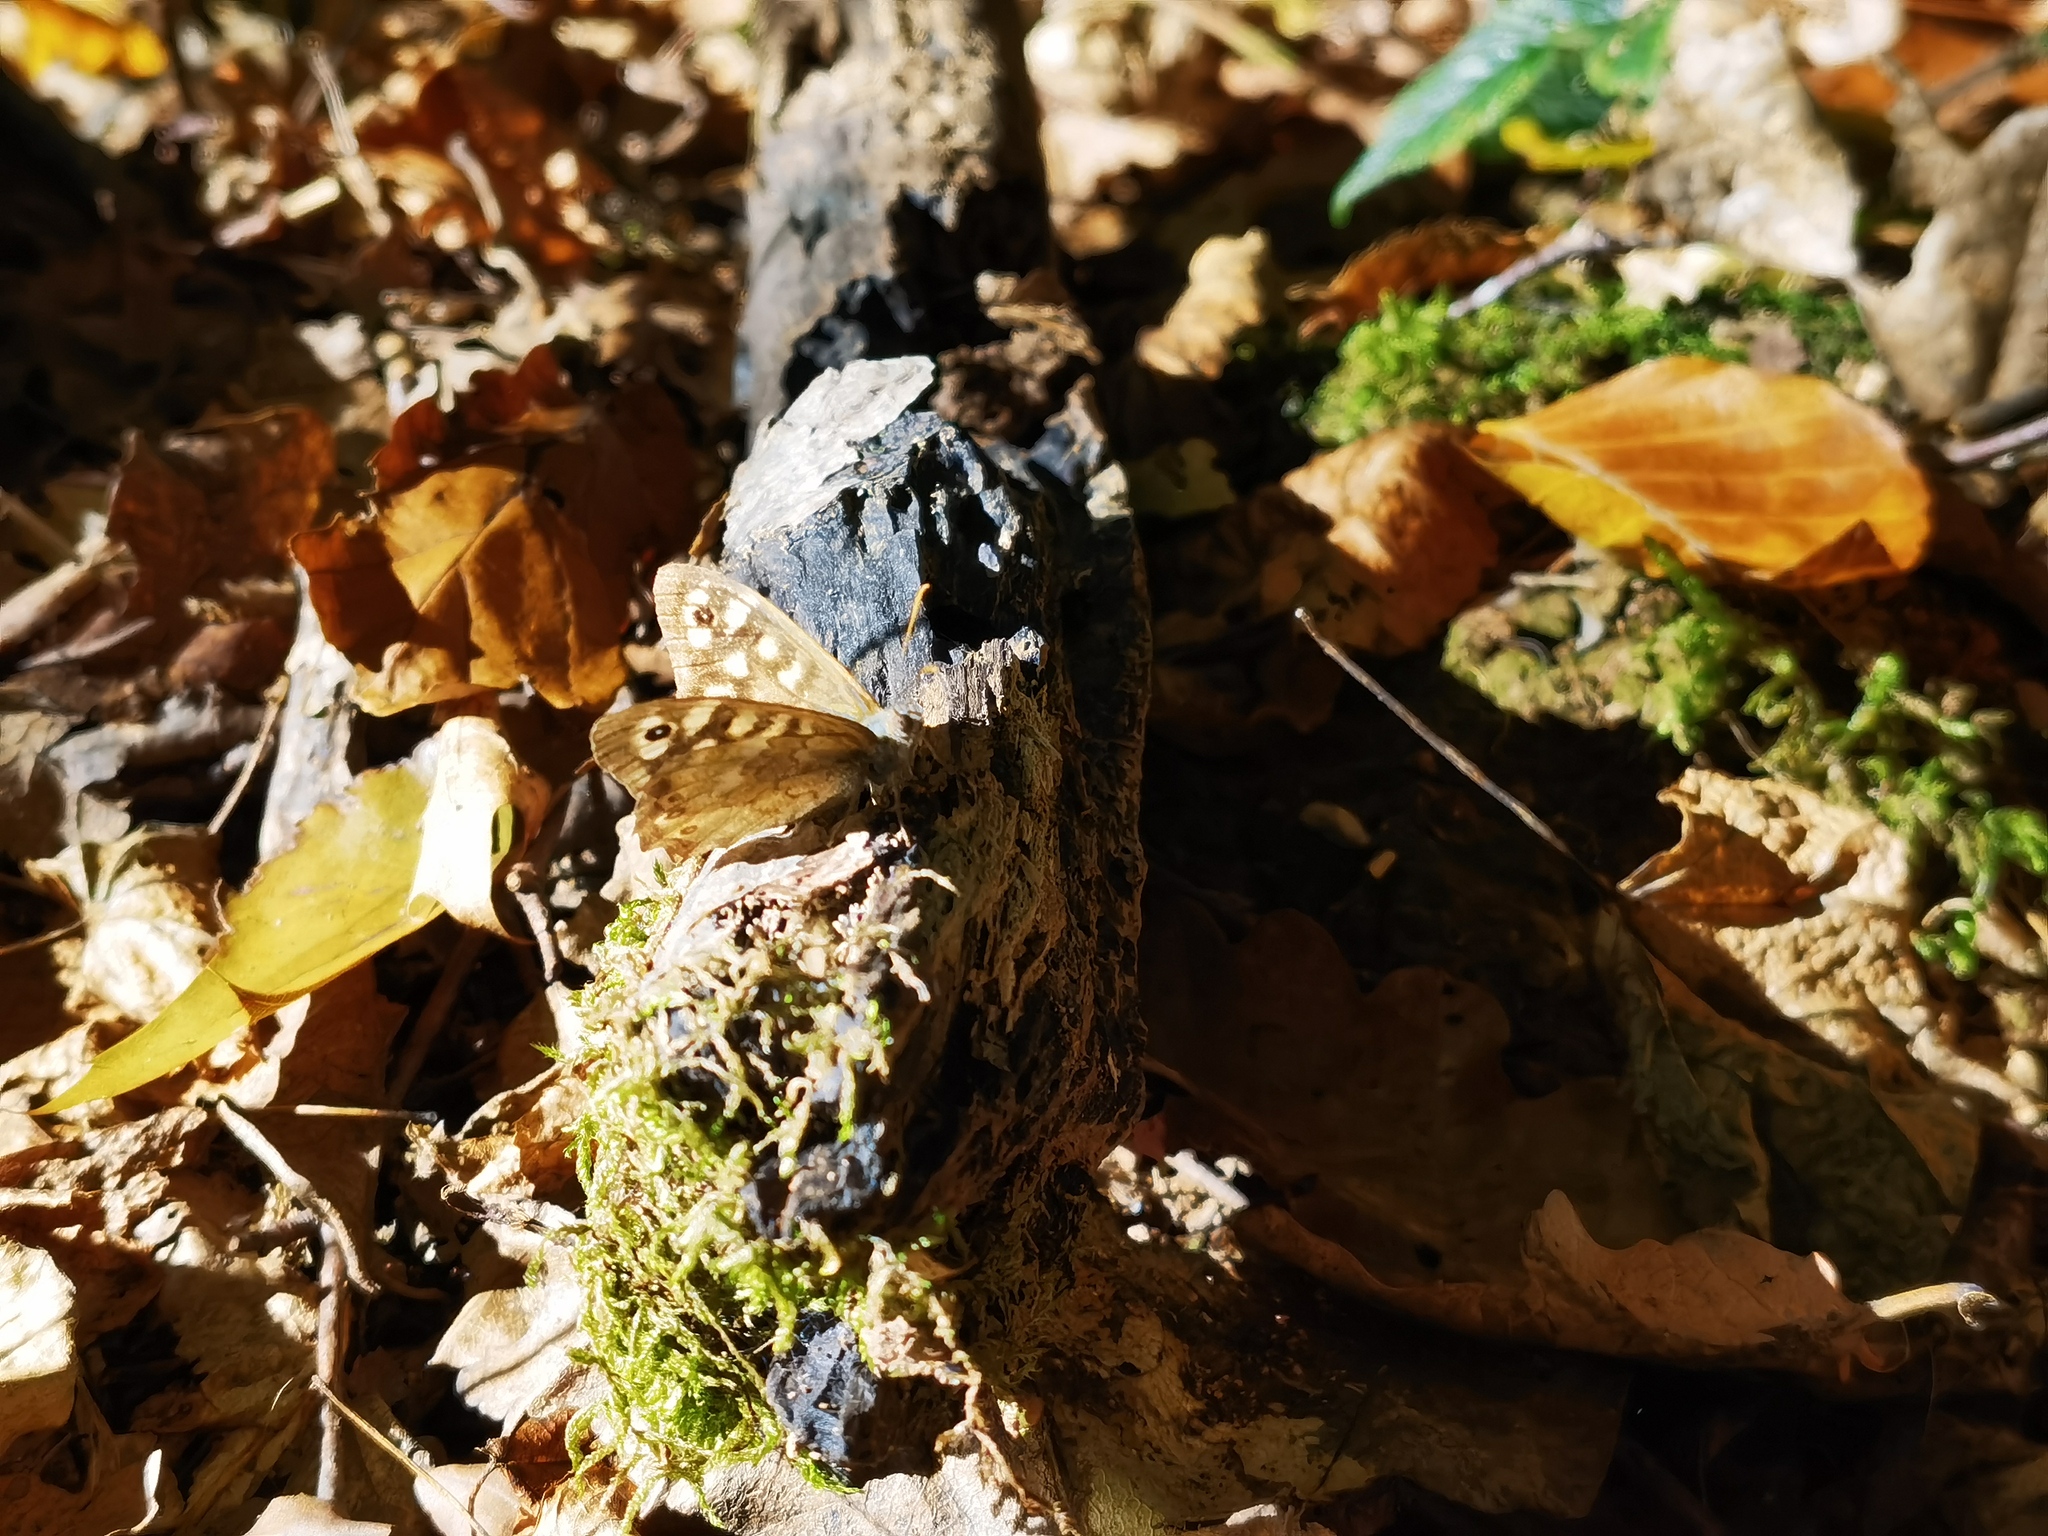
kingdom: Animalia
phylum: Arthropoda
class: Insecta
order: Lepidoptera
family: Nymphalidae
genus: Pararge
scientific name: Pararge aegeria
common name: Speckled wood
